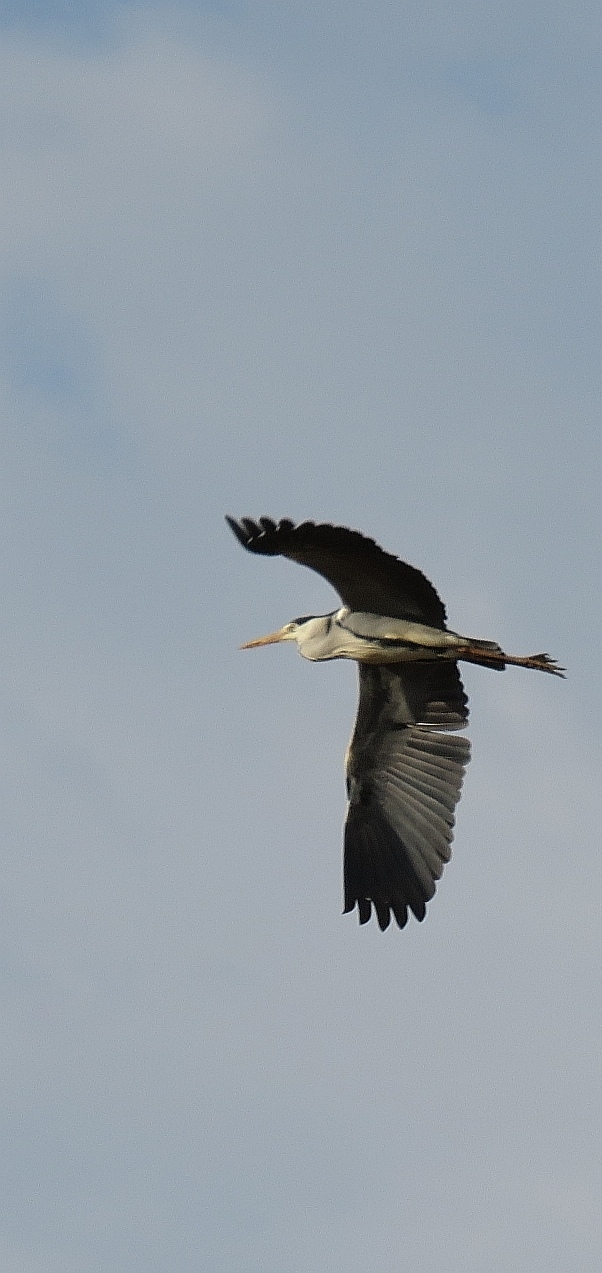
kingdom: Animalia
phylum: Chordata
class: Aves
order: Pelecaniformes
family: Ardeidae
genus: Ardea
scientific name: Ardea cinerea
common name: Grey heron
